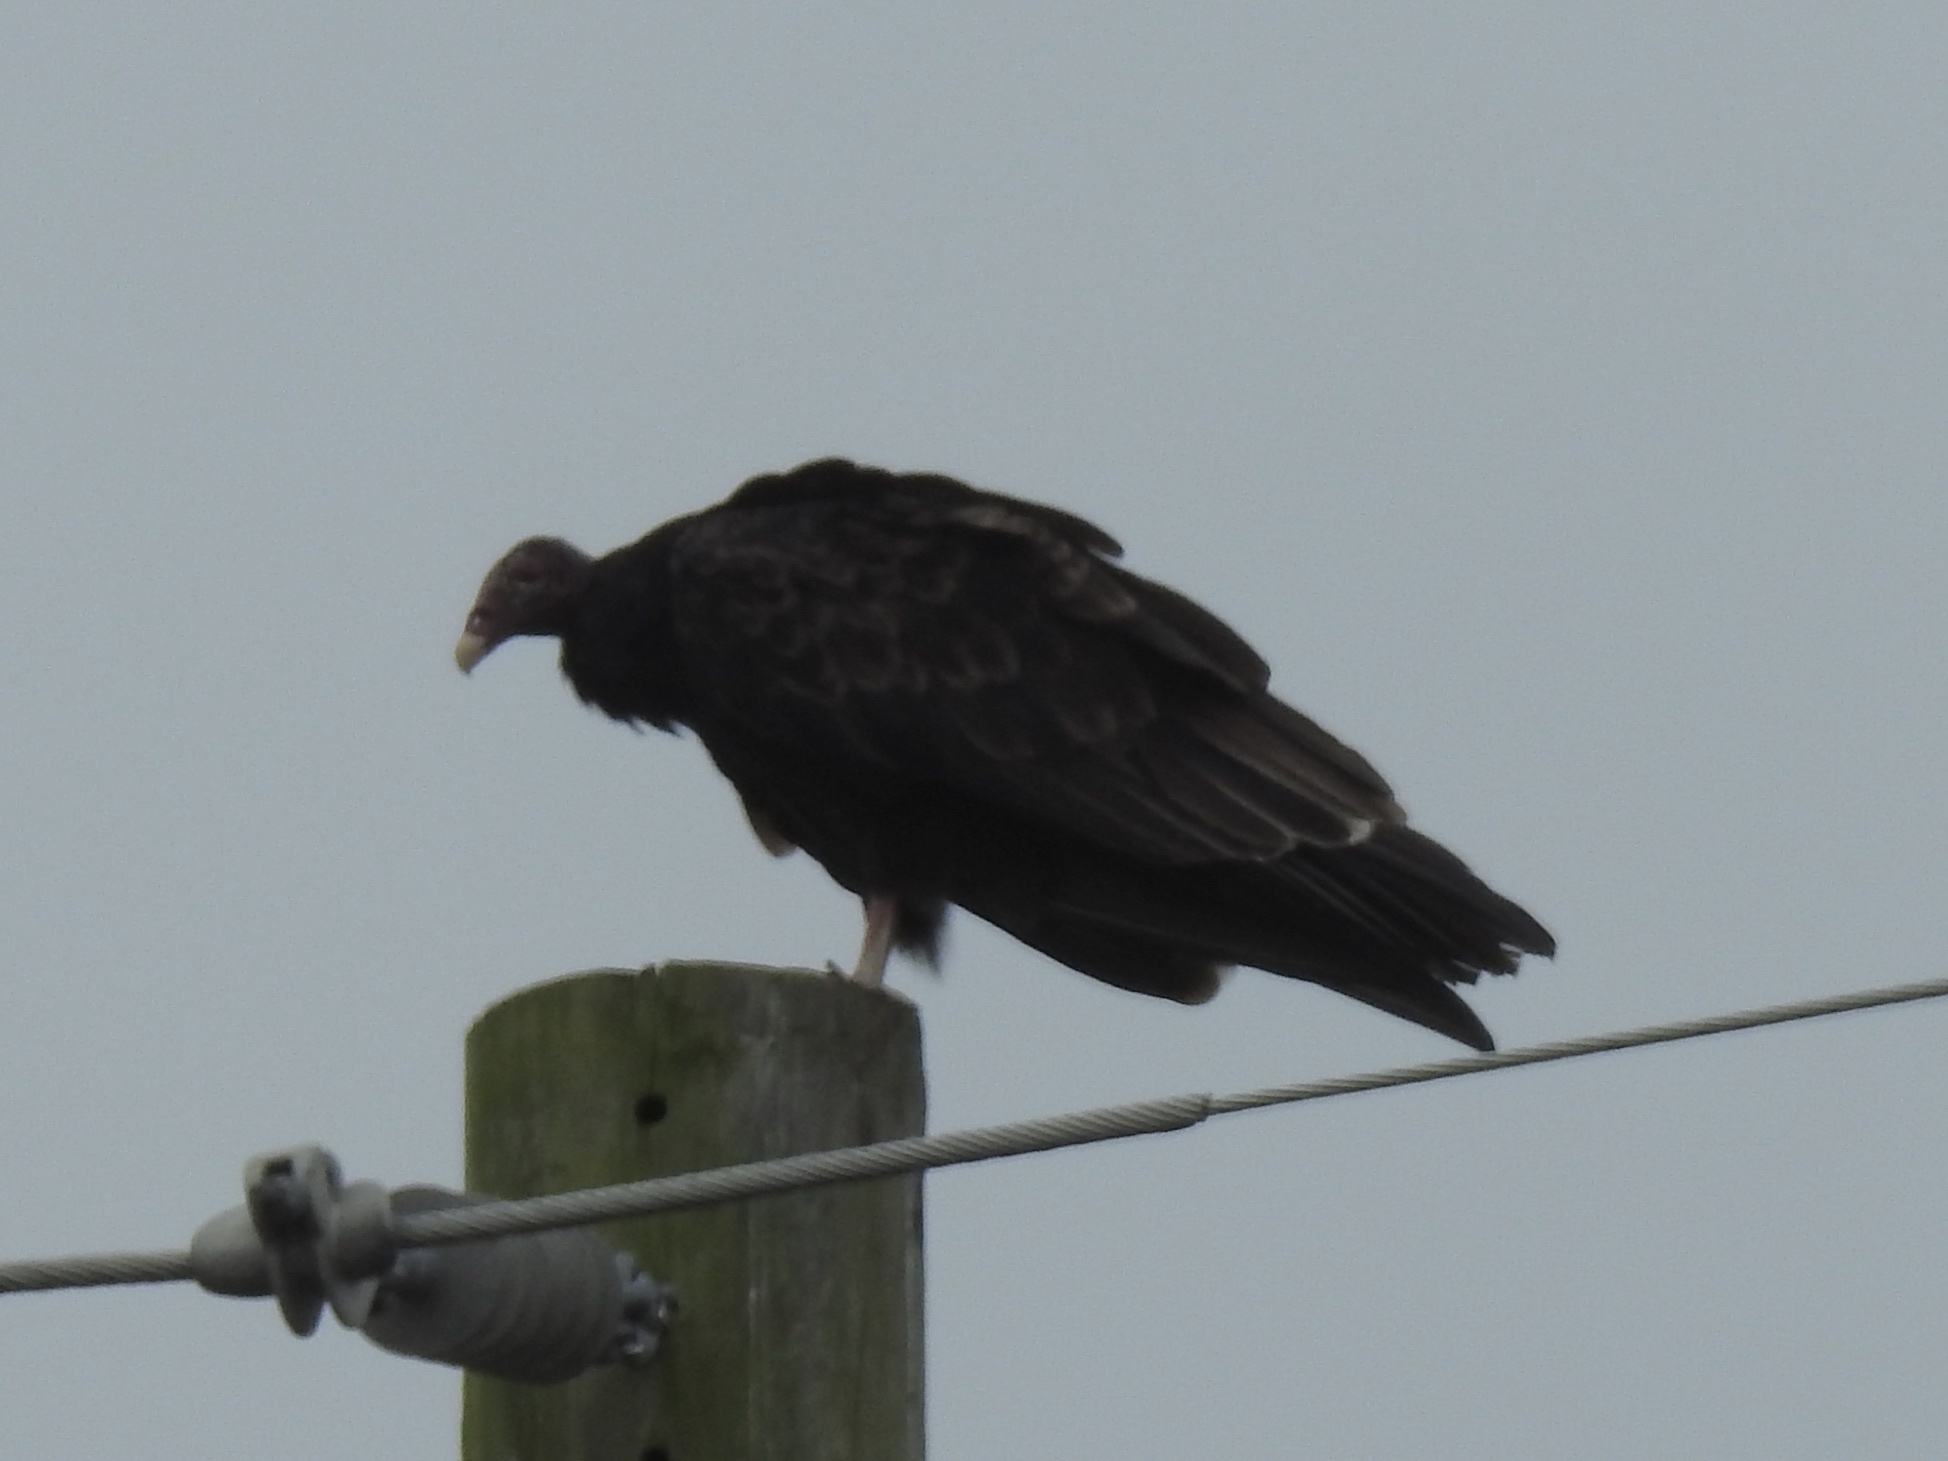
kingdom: Animalia
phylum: Chordata
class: Aves
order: Accipitriformes
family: Cathartidae
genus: Cathartes
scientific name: Cathartes aura
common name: Turkey vulture
